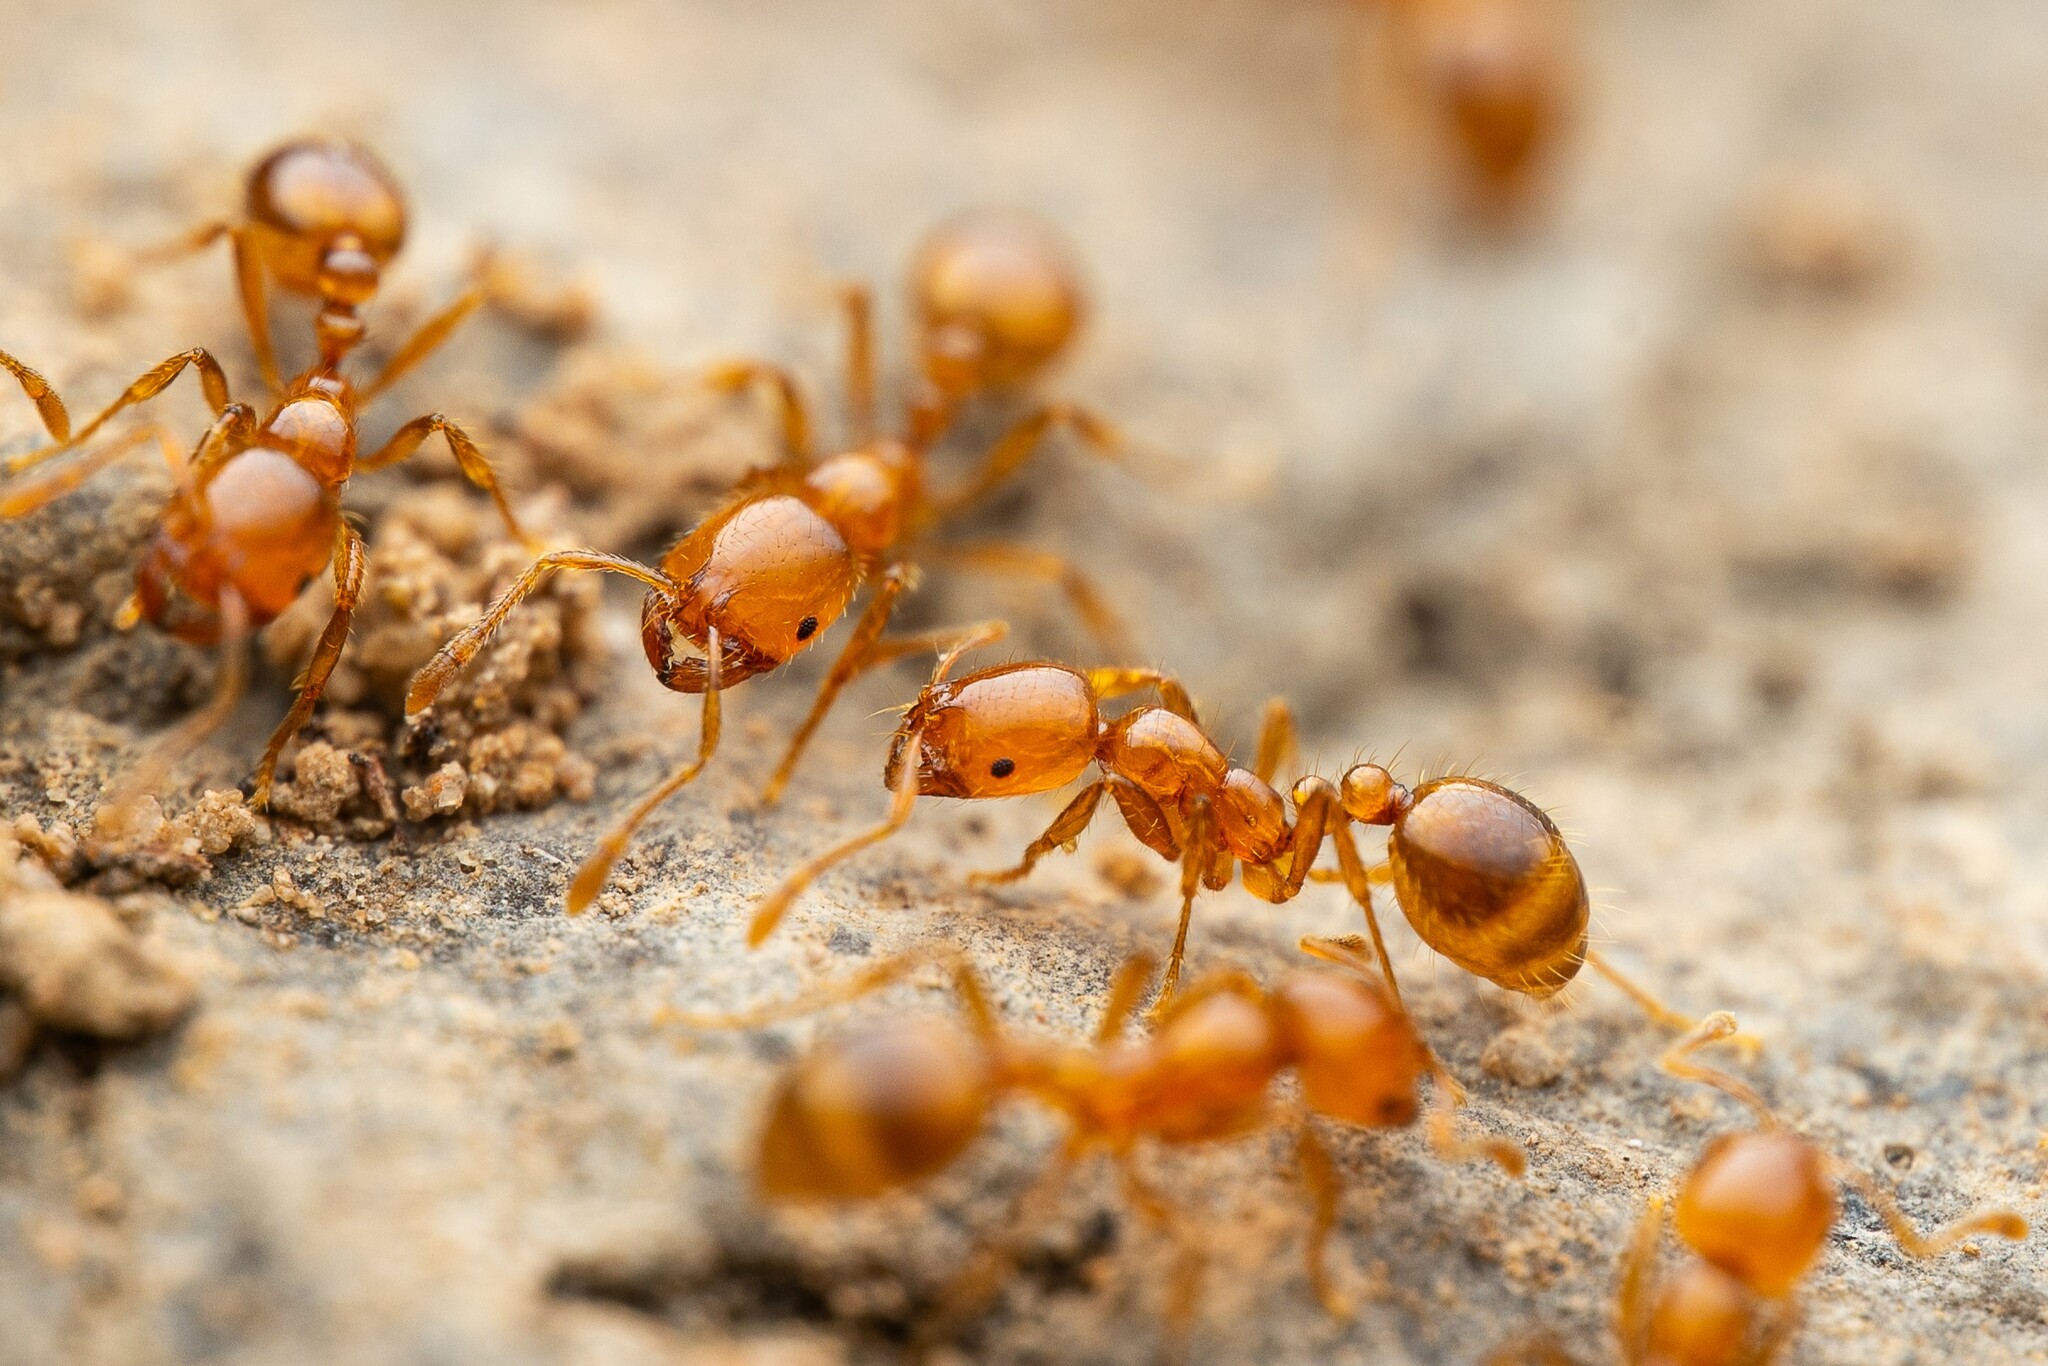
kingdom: Animalia
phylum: Arthropoda
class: Insecta
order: Hymenoptera
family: Formicidae
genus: Solenopsis
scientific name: Solenopsis aurea
